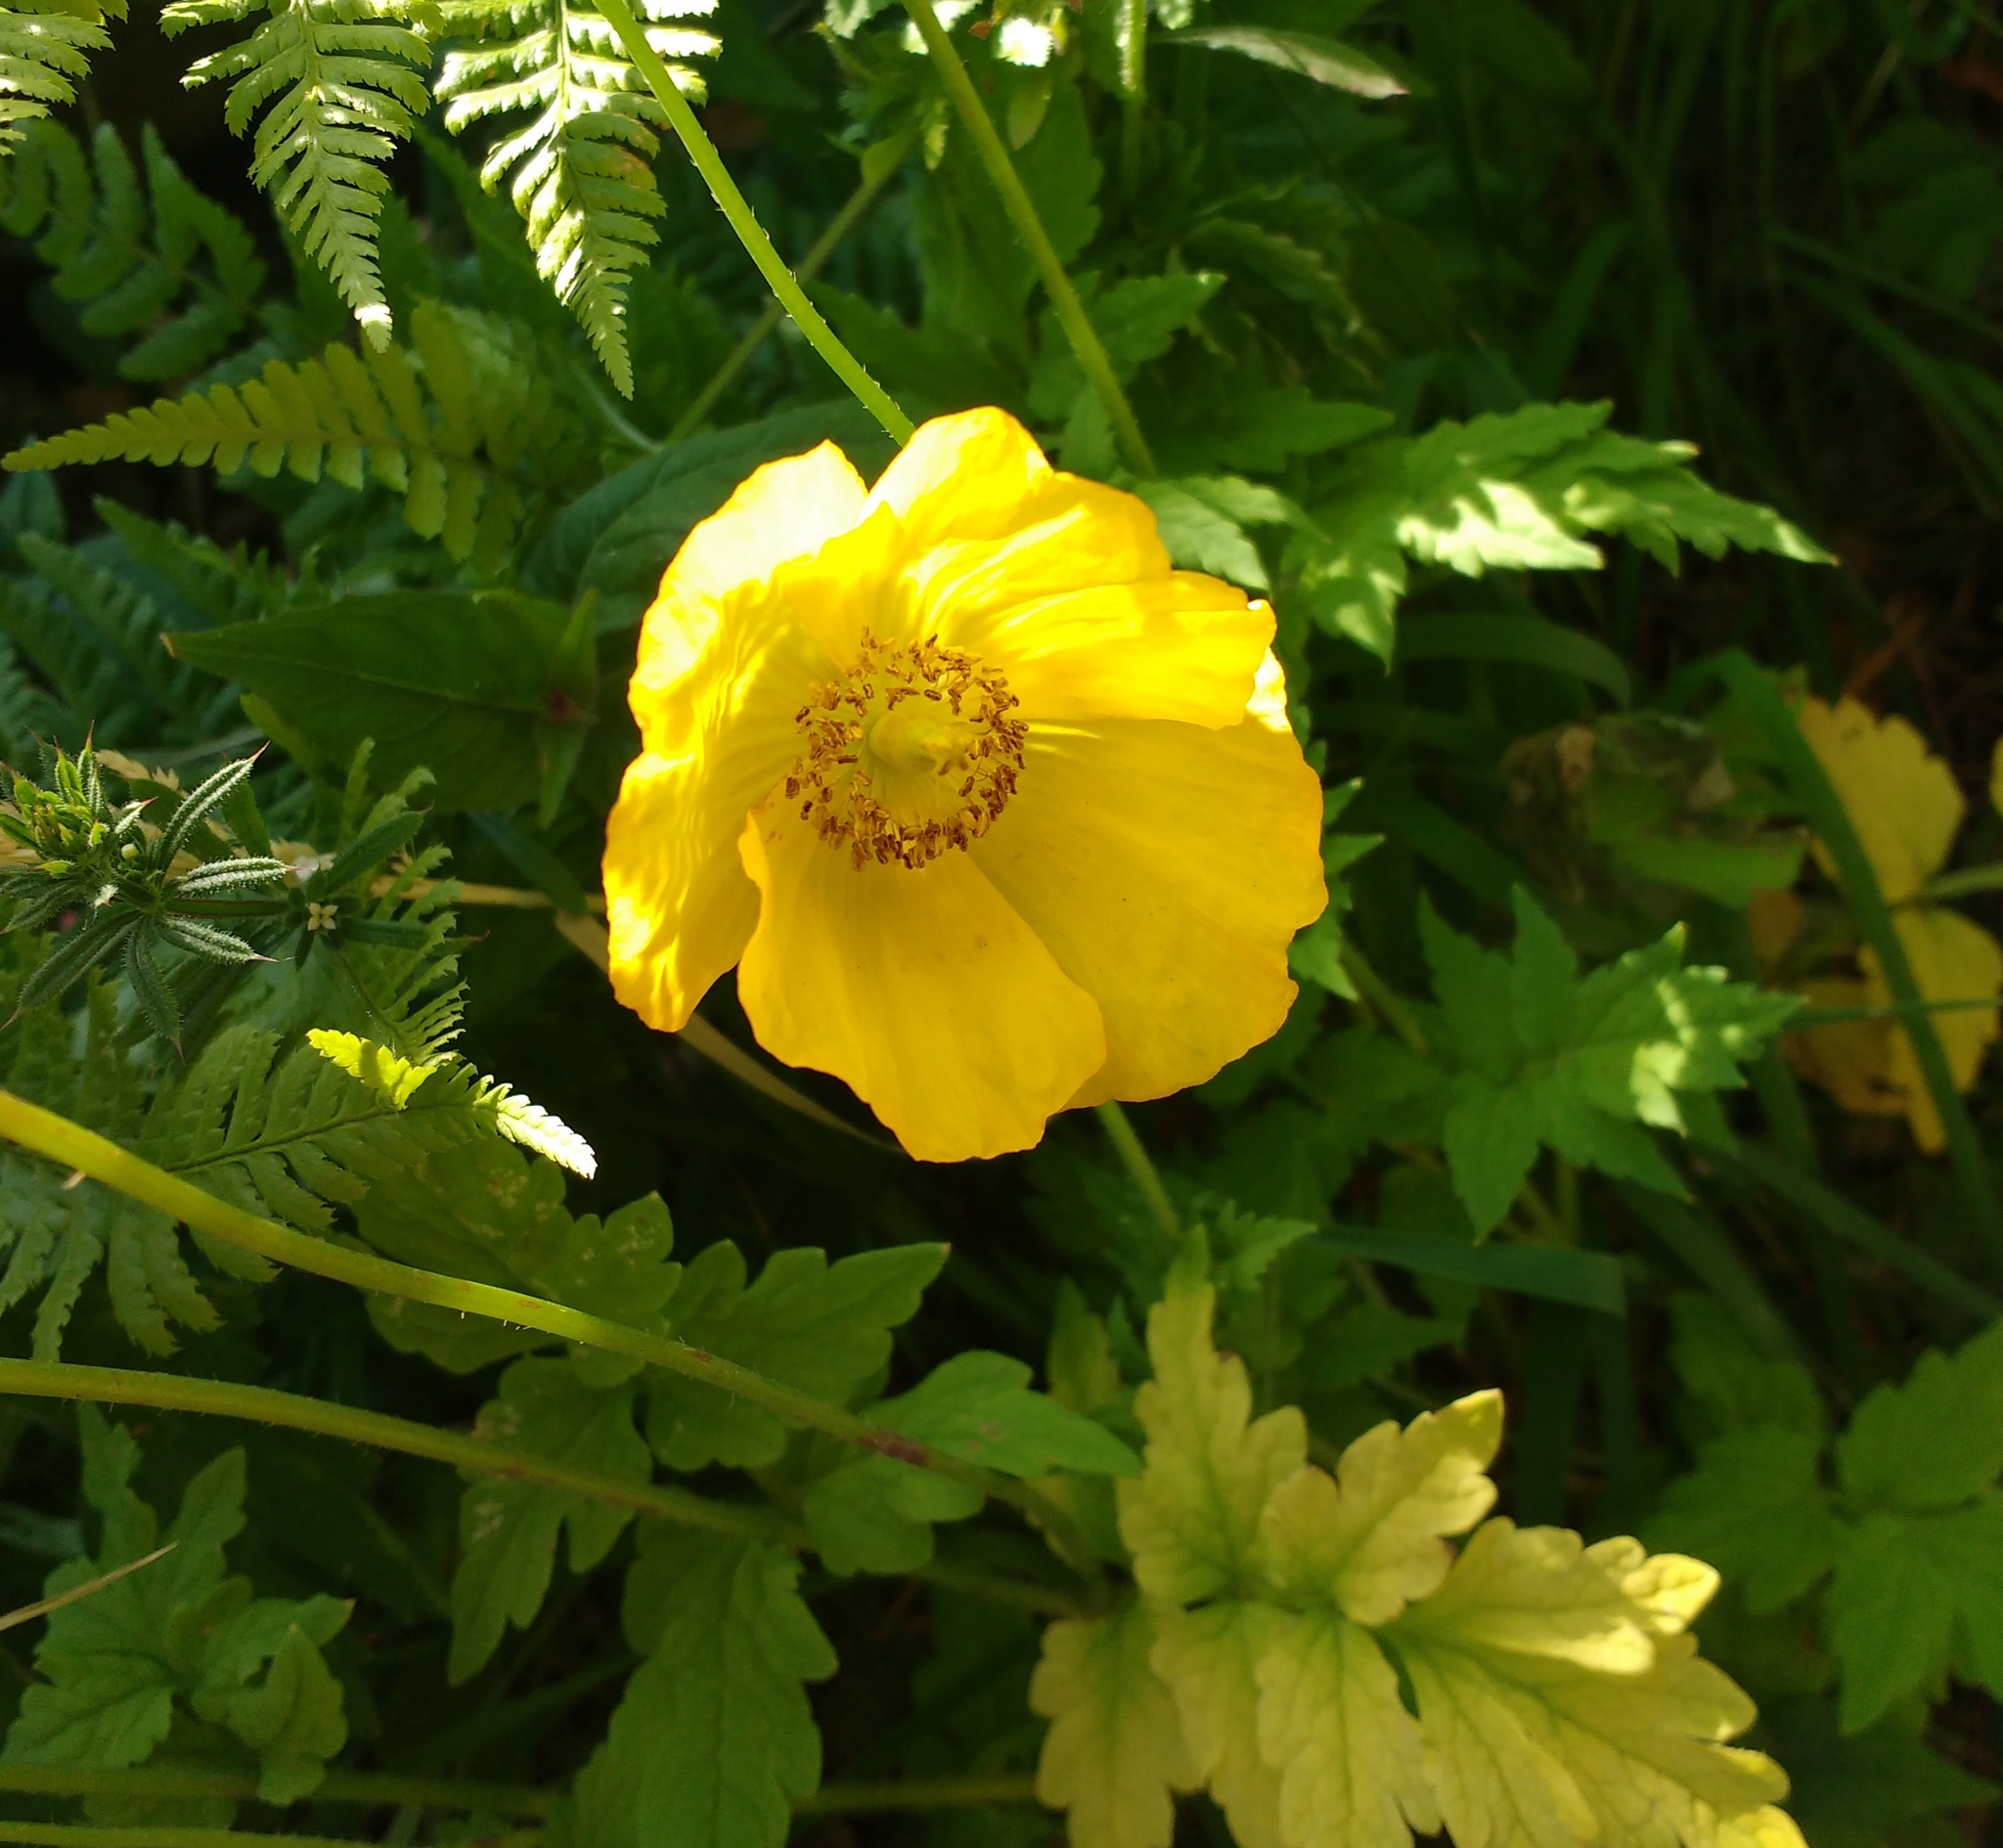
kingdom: Plantae
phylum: Tracheophyta
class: Magnoliopsida
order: Ranunculales
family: Papaveraceae
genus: Papaver
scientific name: Papaver cambricum
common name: Poppy
